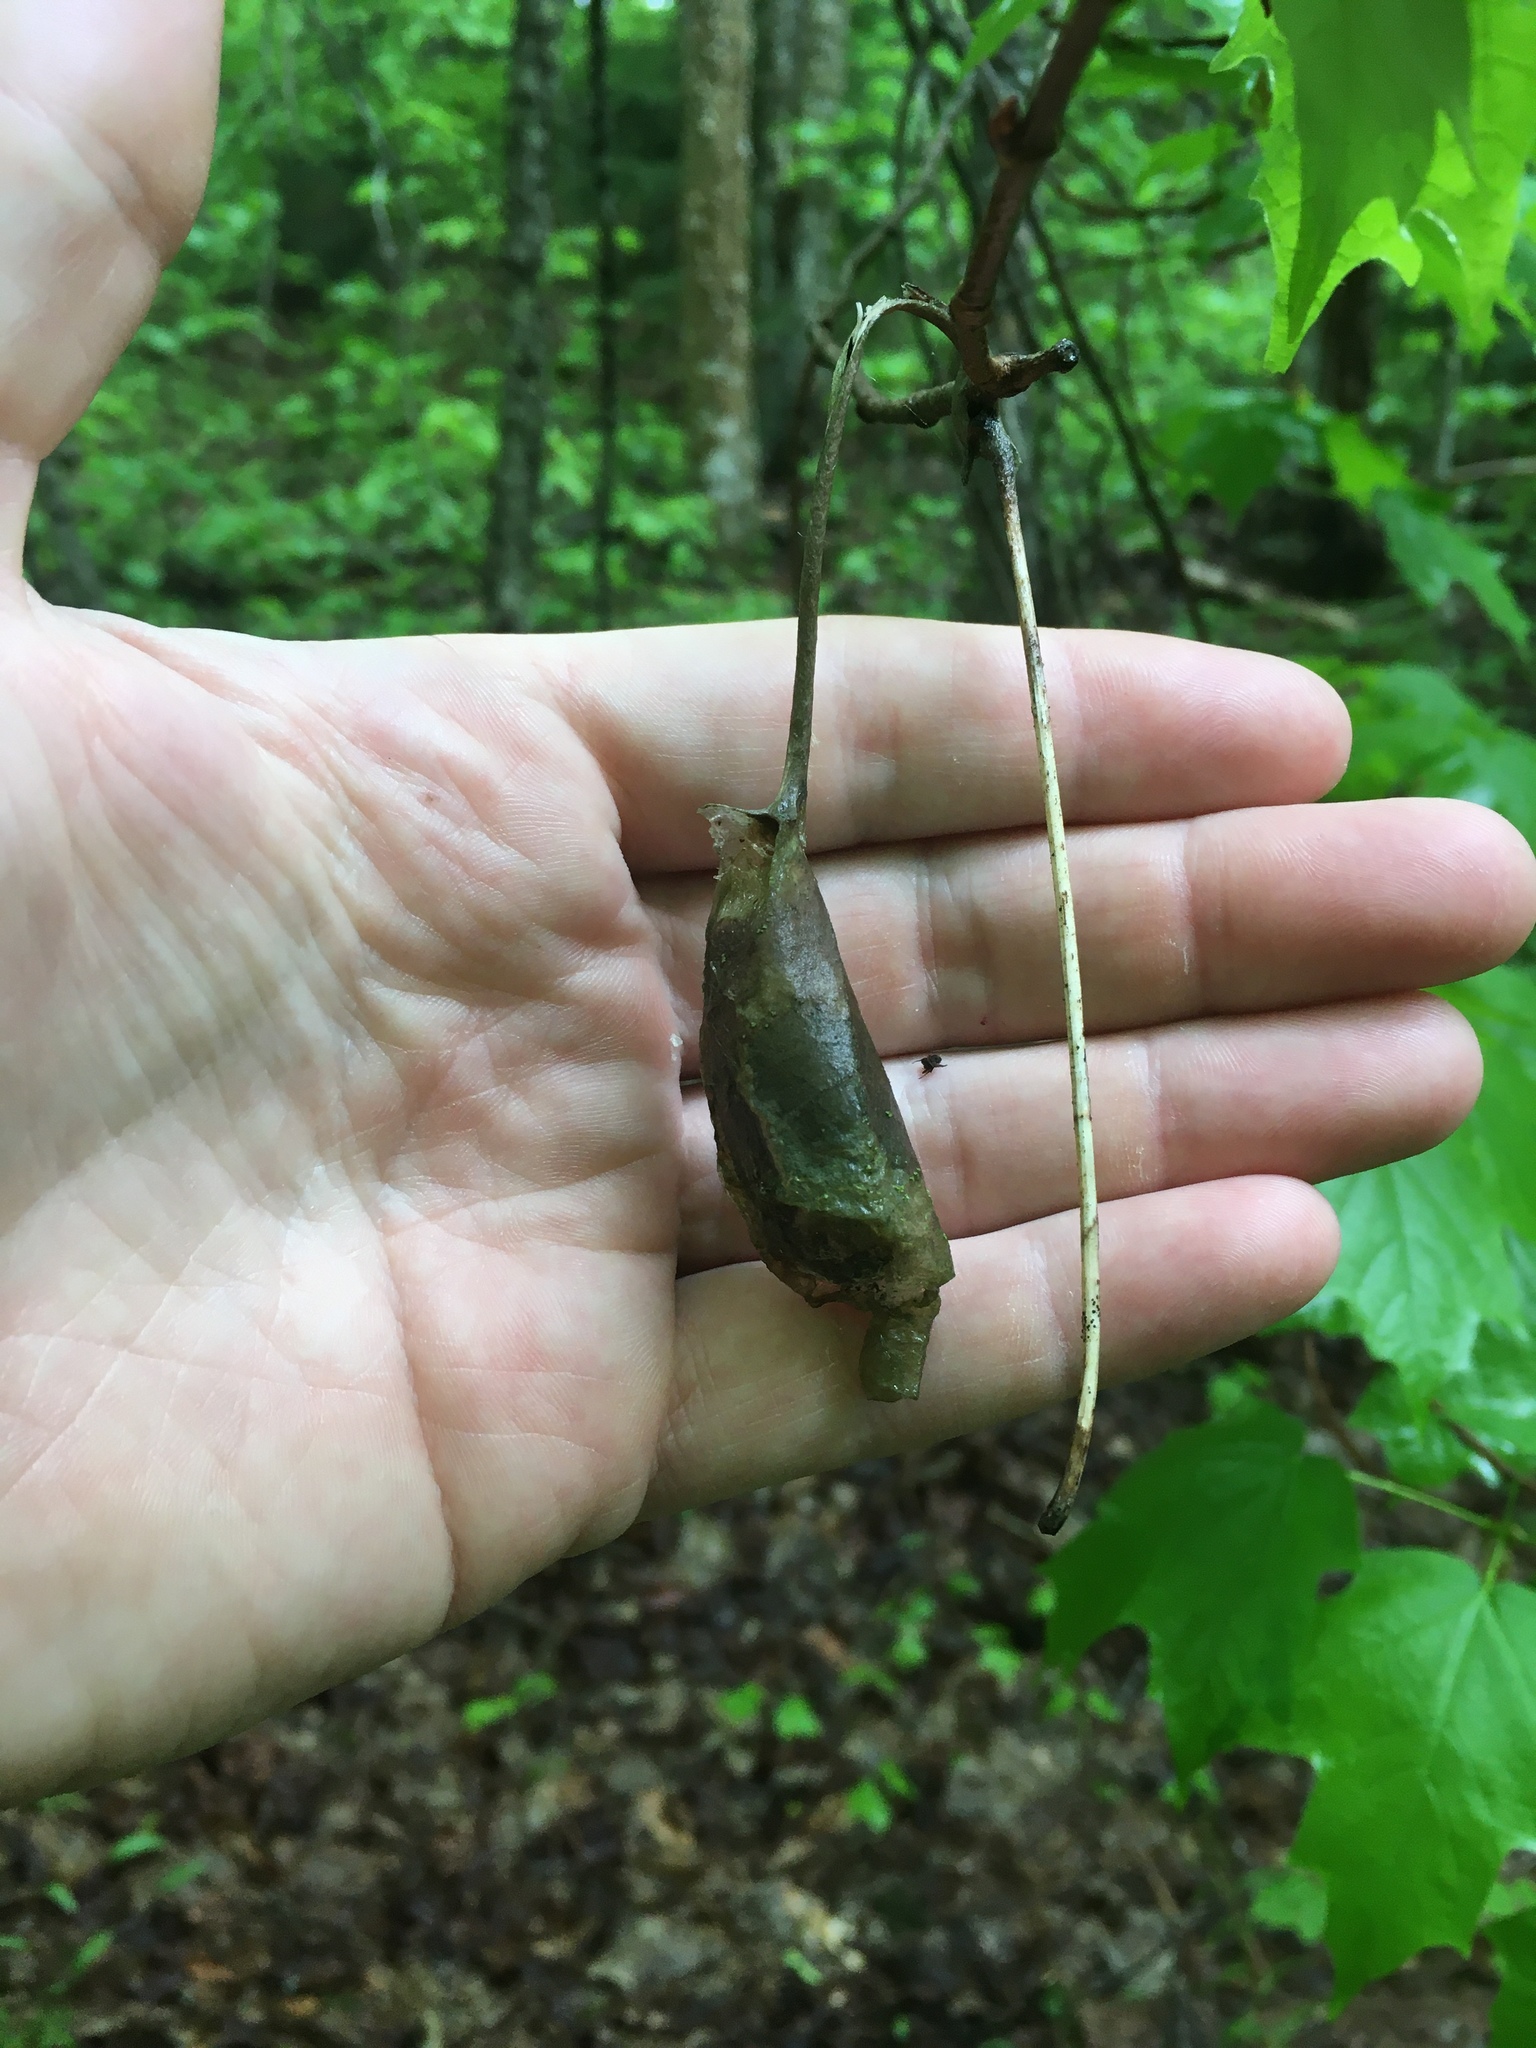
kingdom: Animalia
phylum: Arthropoda
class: Insecta
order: Lepidoptera
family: Saturniidae
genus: Callosamia
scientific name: Callosamia promethea
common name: Promethea silkmoth
